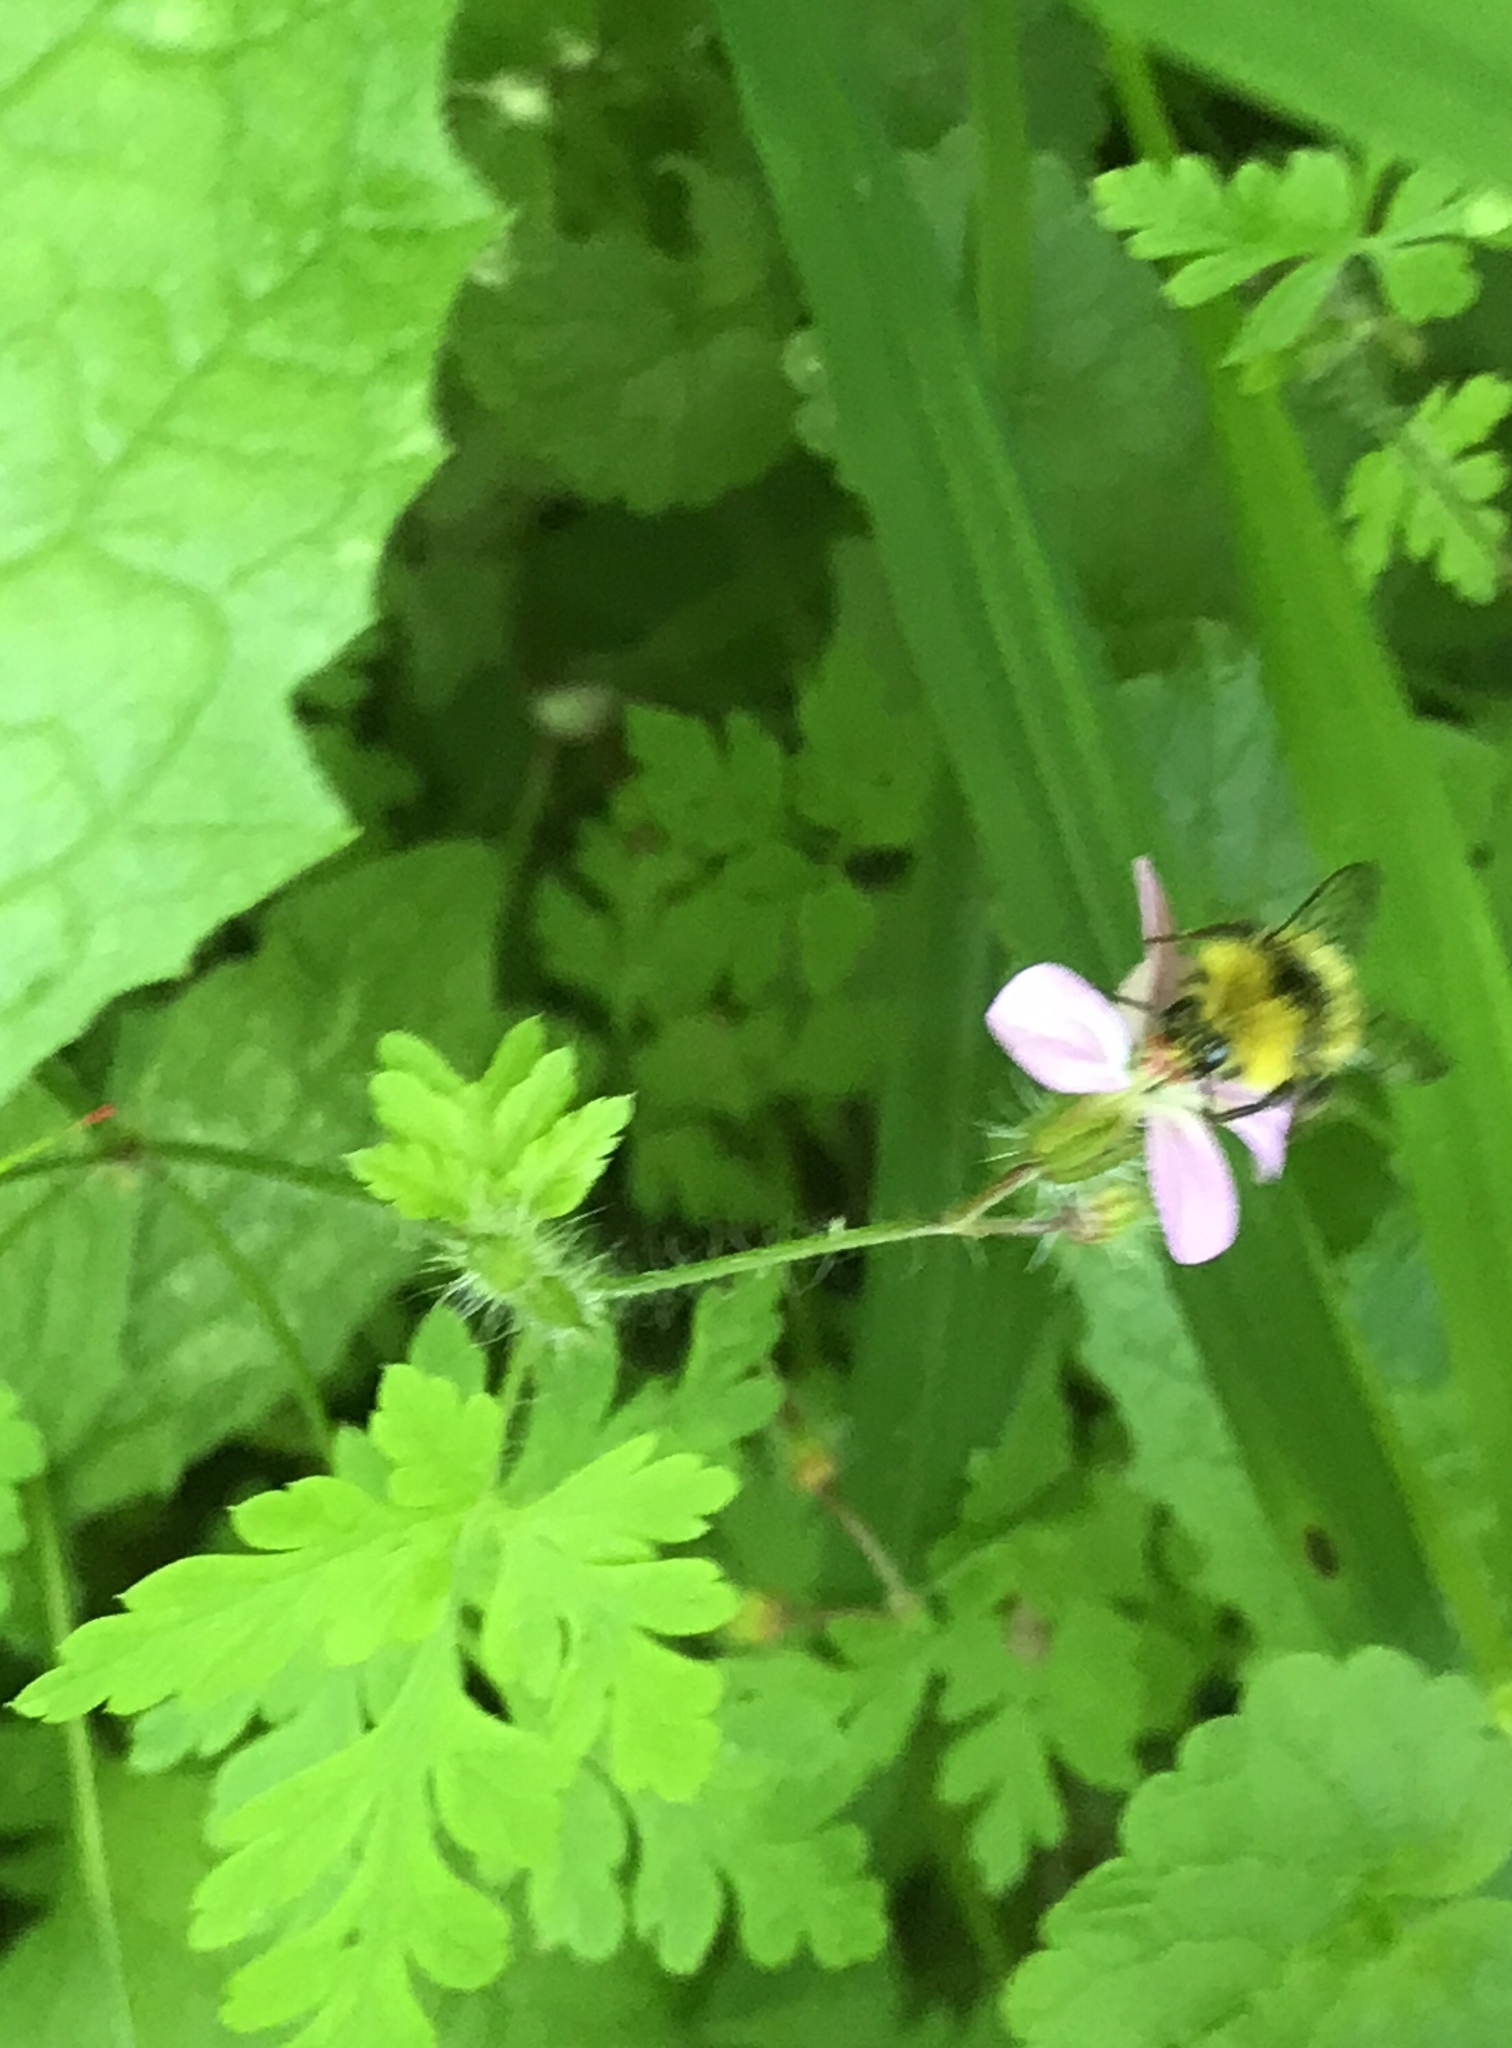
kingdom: Animalia
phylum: Arthropoda
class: Insecta
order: Hymenoptera
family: Apidae
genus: Bombus
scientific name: Bombus pratorum
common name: Early humble-bee
